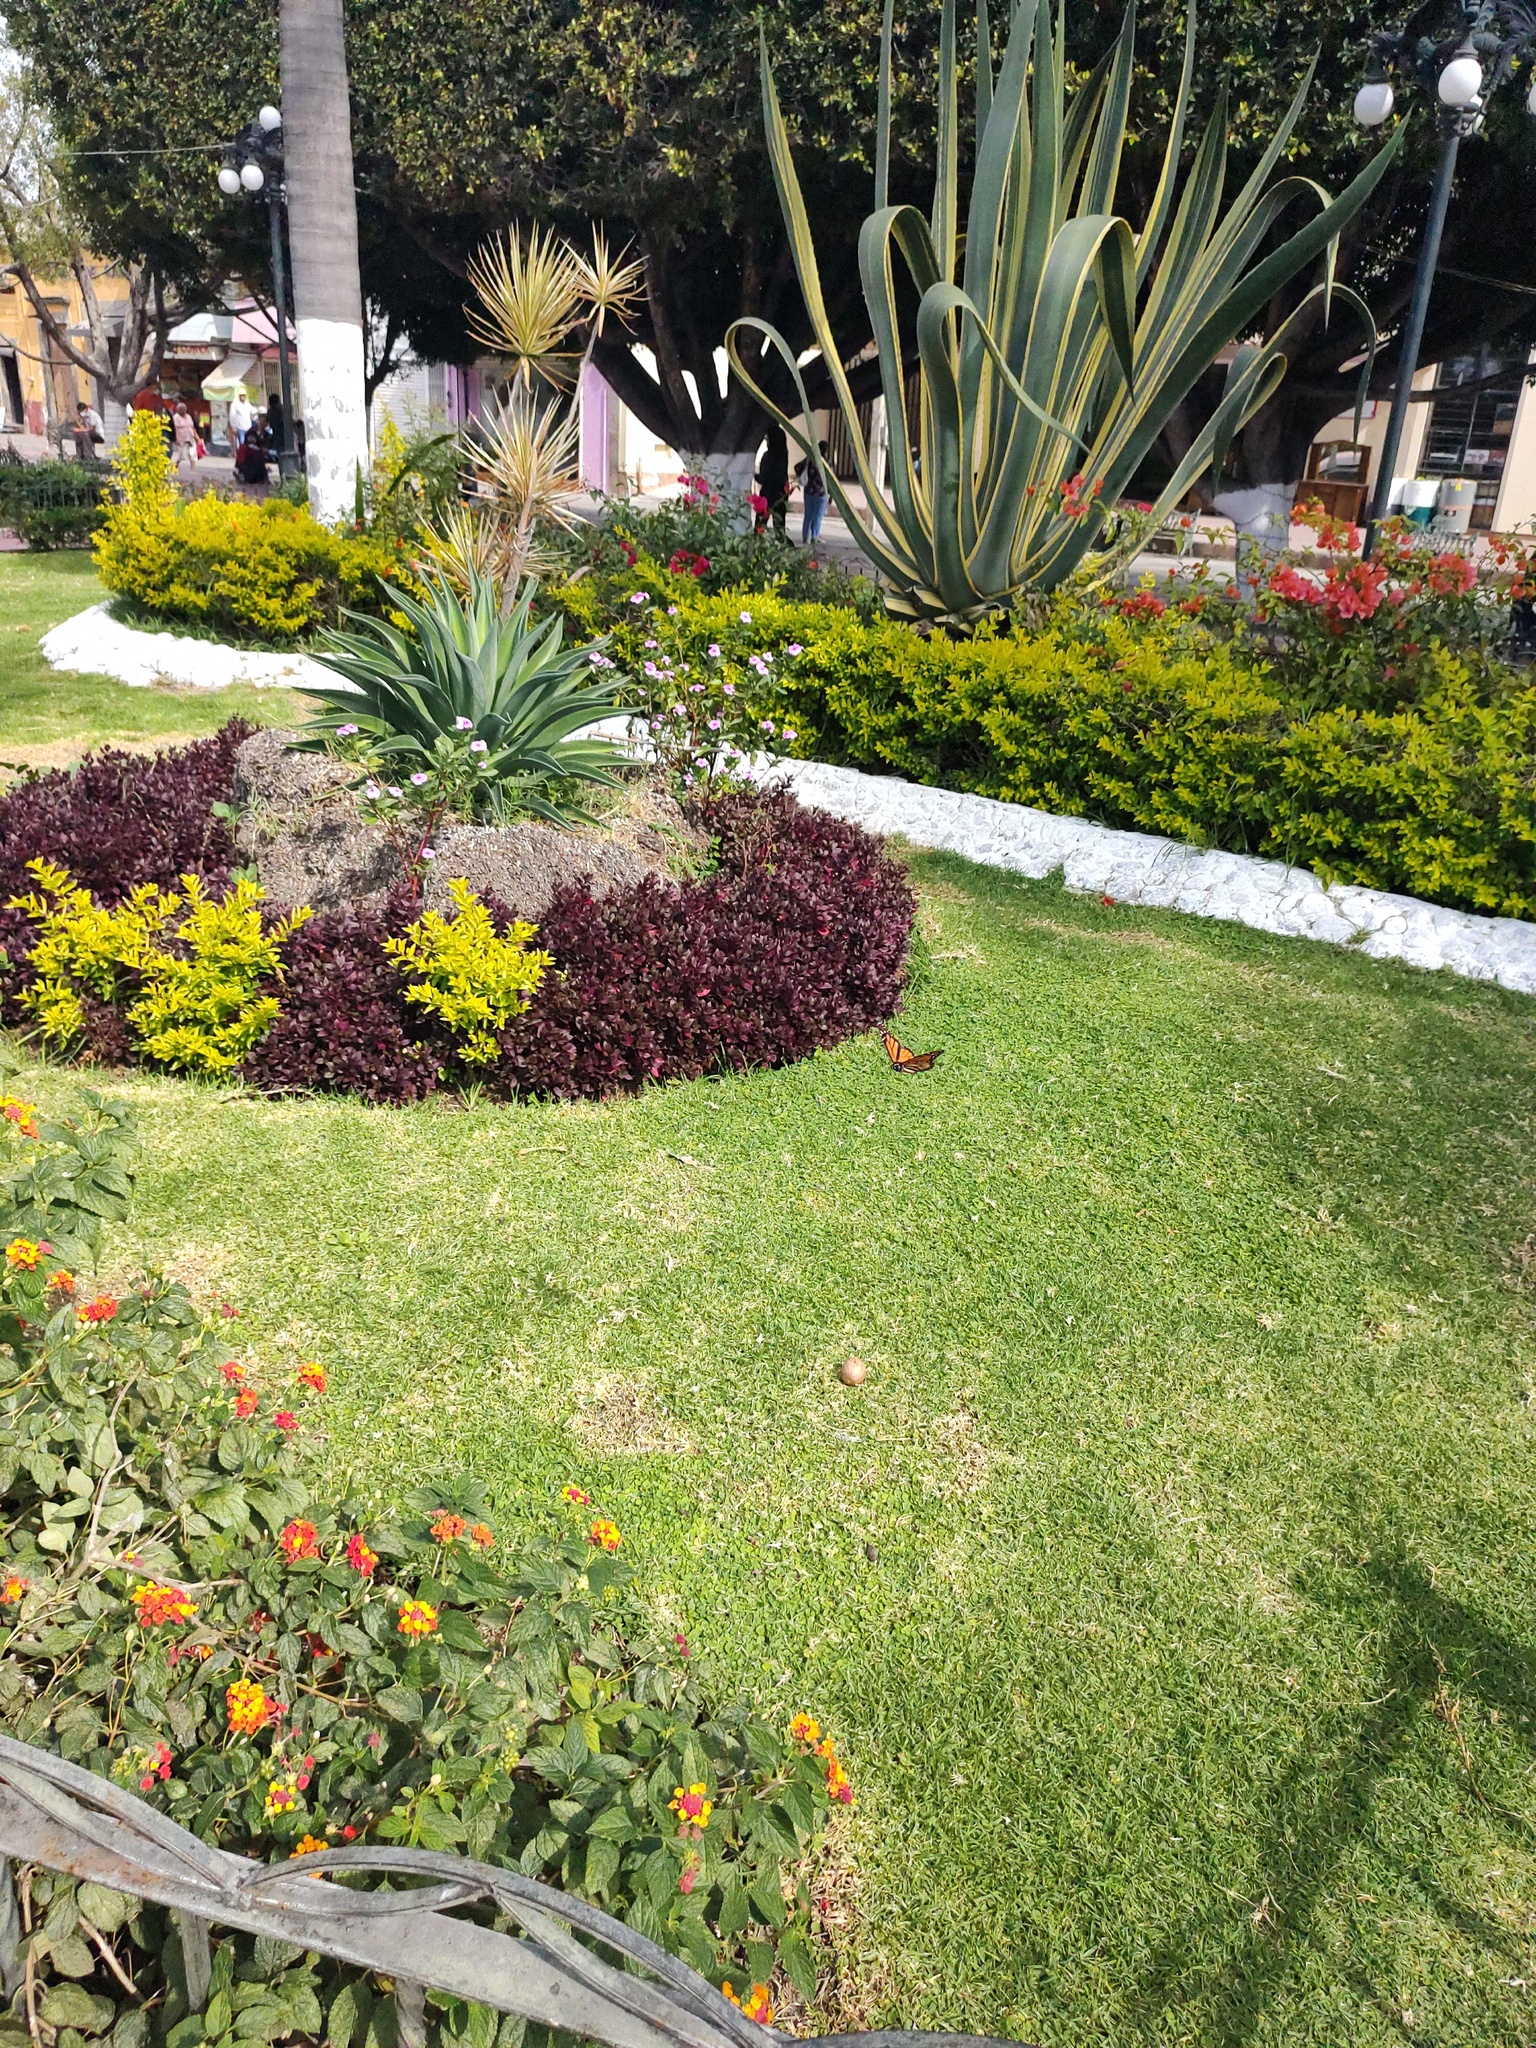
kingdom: Animalia
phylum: Arthropoda
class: Insecta
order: Lepidoptera
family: Nymphalidae
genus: Danaus
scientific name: Danaus plexippus
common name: Monarch
